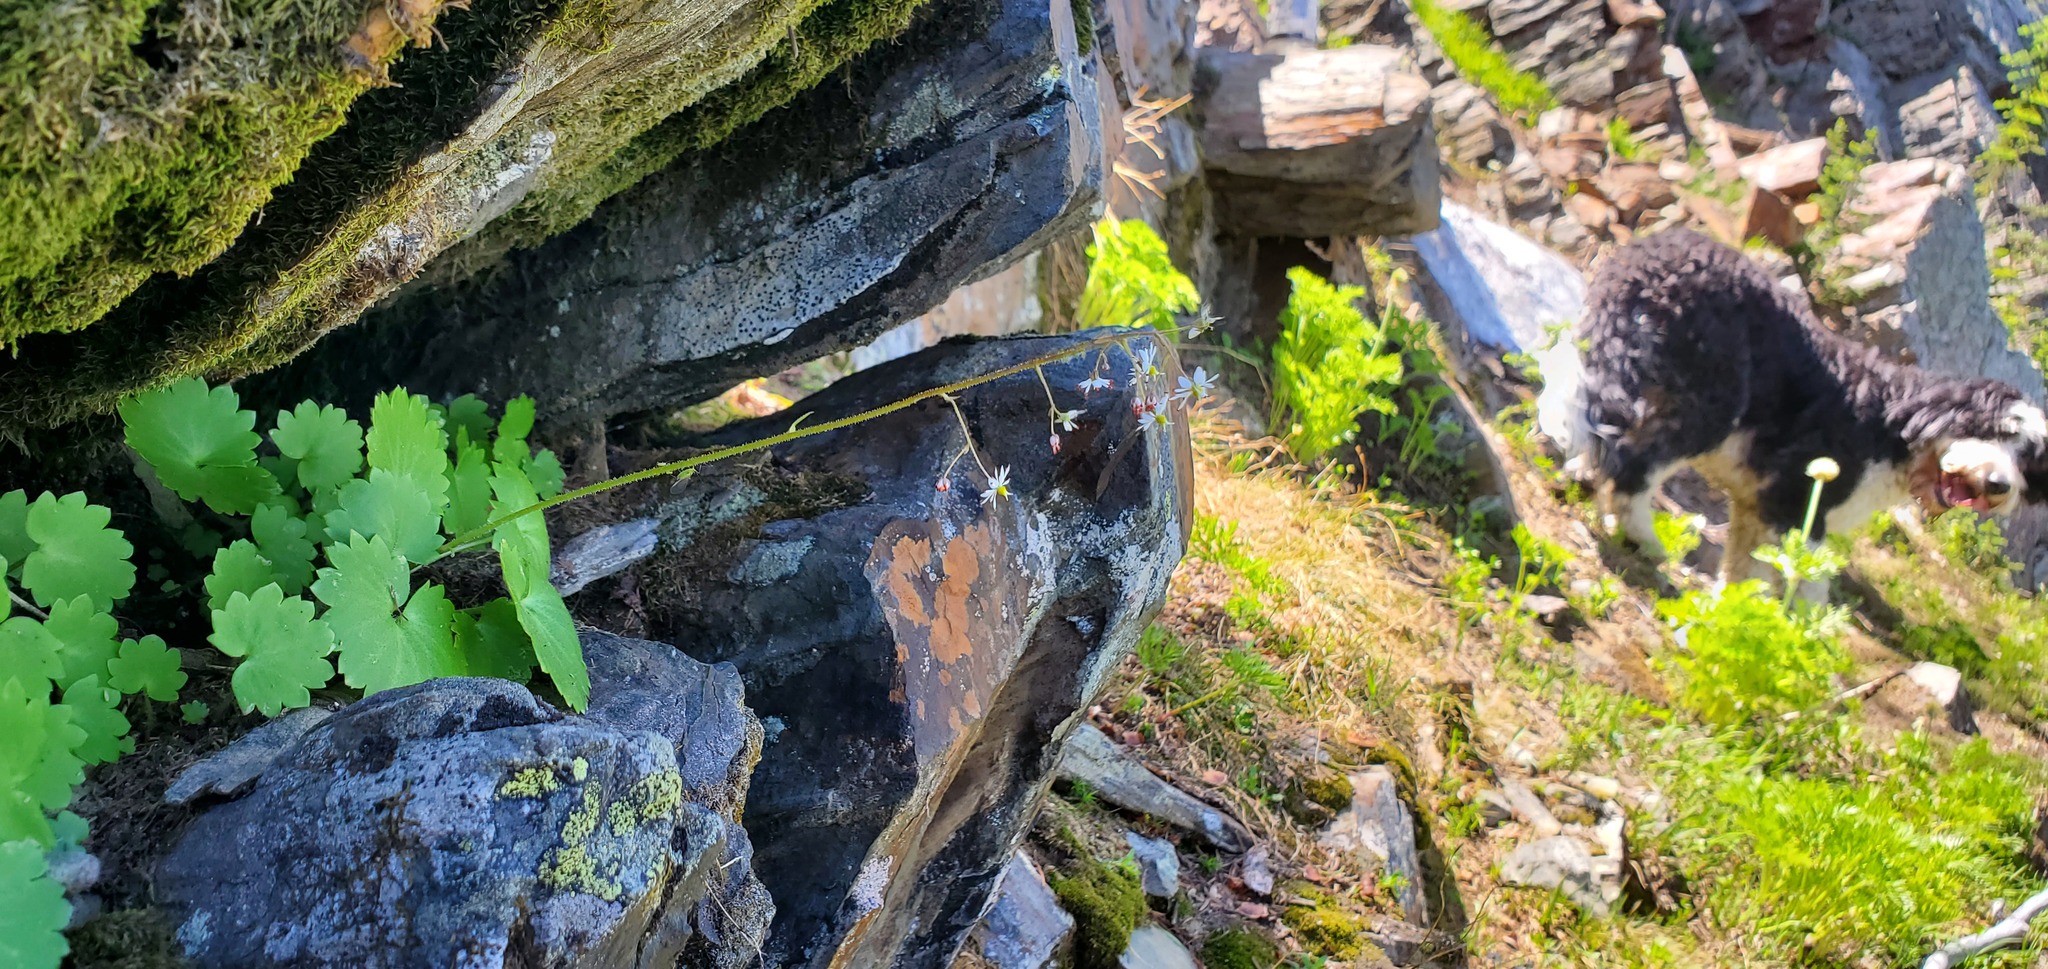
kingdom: Plantae
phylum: Tracheophyta
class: Magnoliopsida
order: Saxifragales
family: Saxifragaceae
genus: Micranthes
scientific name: Micranthes mertensiana
